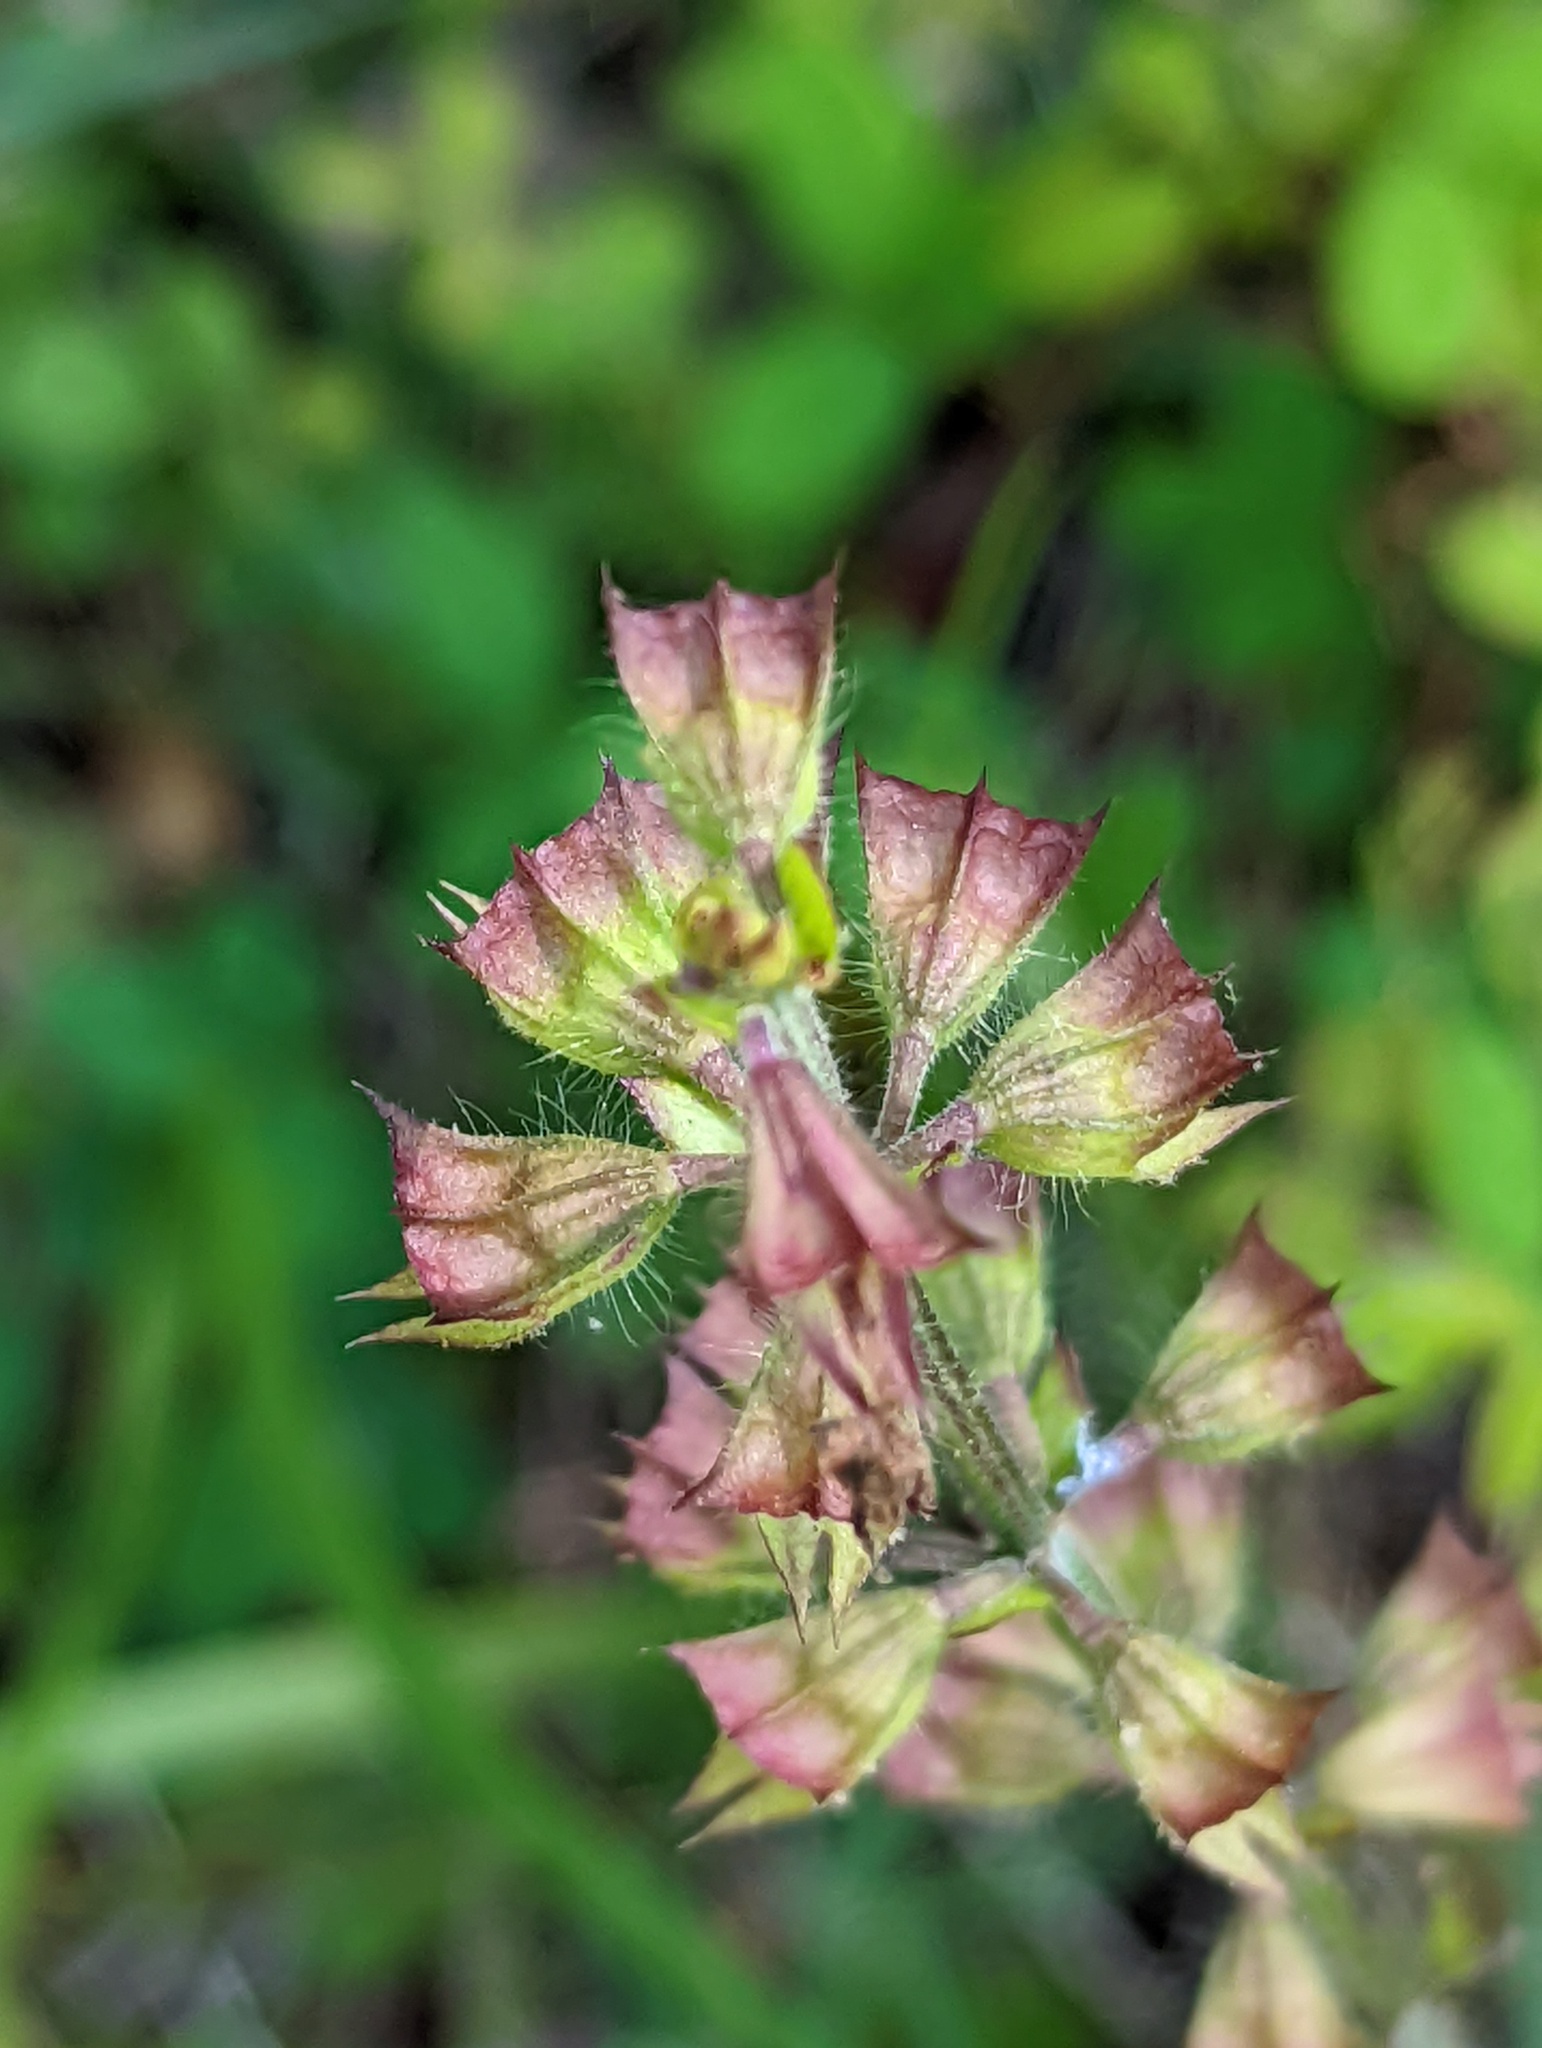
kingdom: Plantae
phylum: Tracheophyta
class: Magnoliopsida
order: Lamiales
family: Lamiaceae
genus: Salvia
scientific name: Salvia lyrata
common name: Cancerweed
